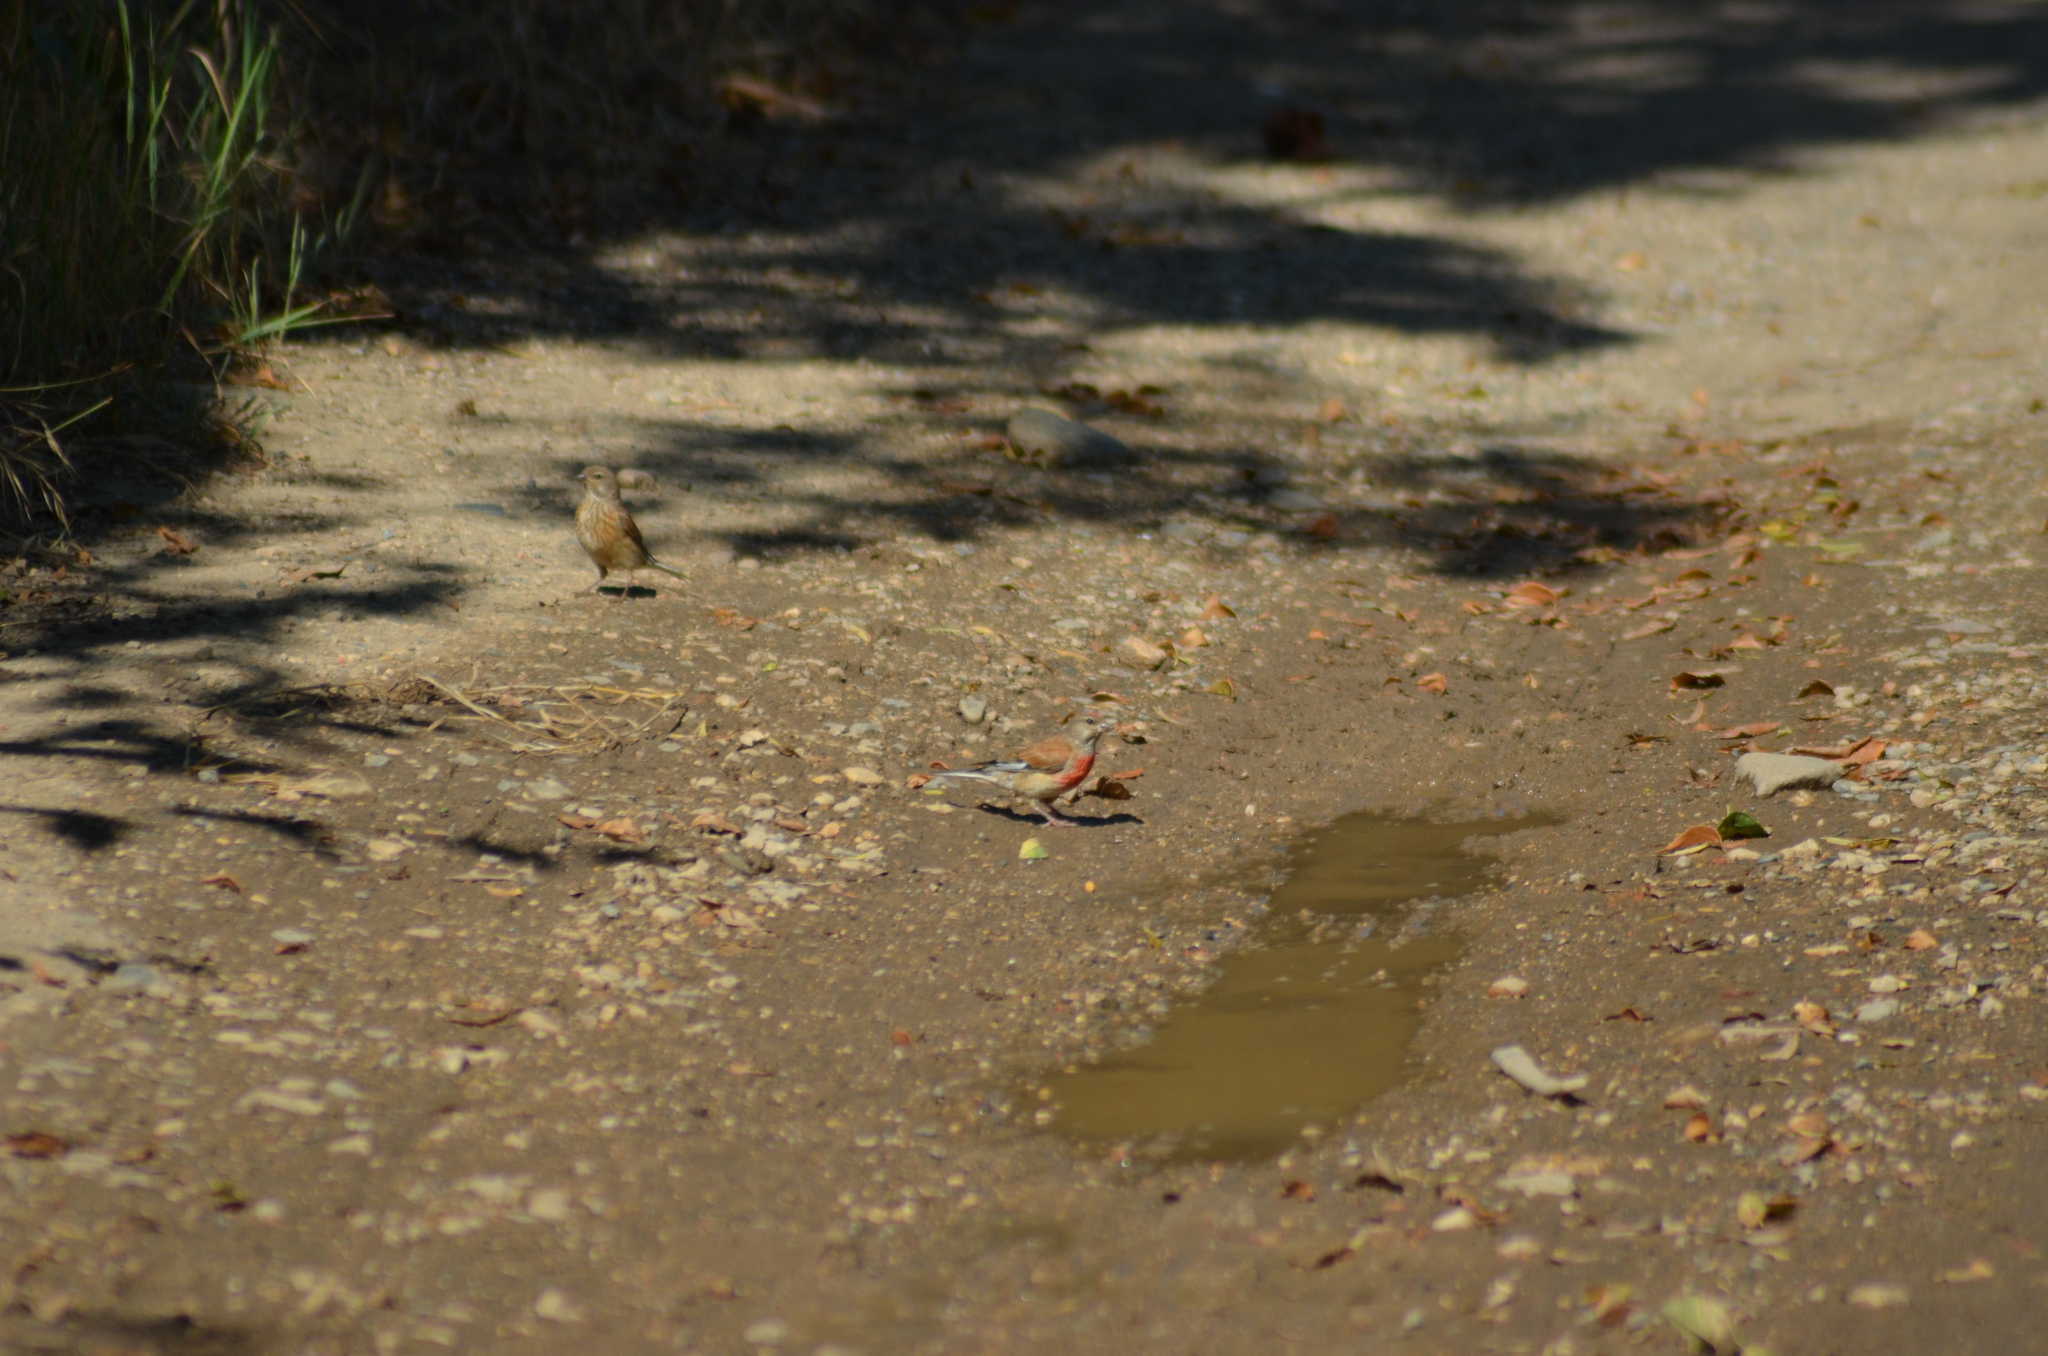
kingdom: Animalia
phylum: Chordata
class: Aves
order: Passeriformes
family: Fringillidae
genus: Linaria
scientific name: Linaria cannabina
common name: Common linnet
